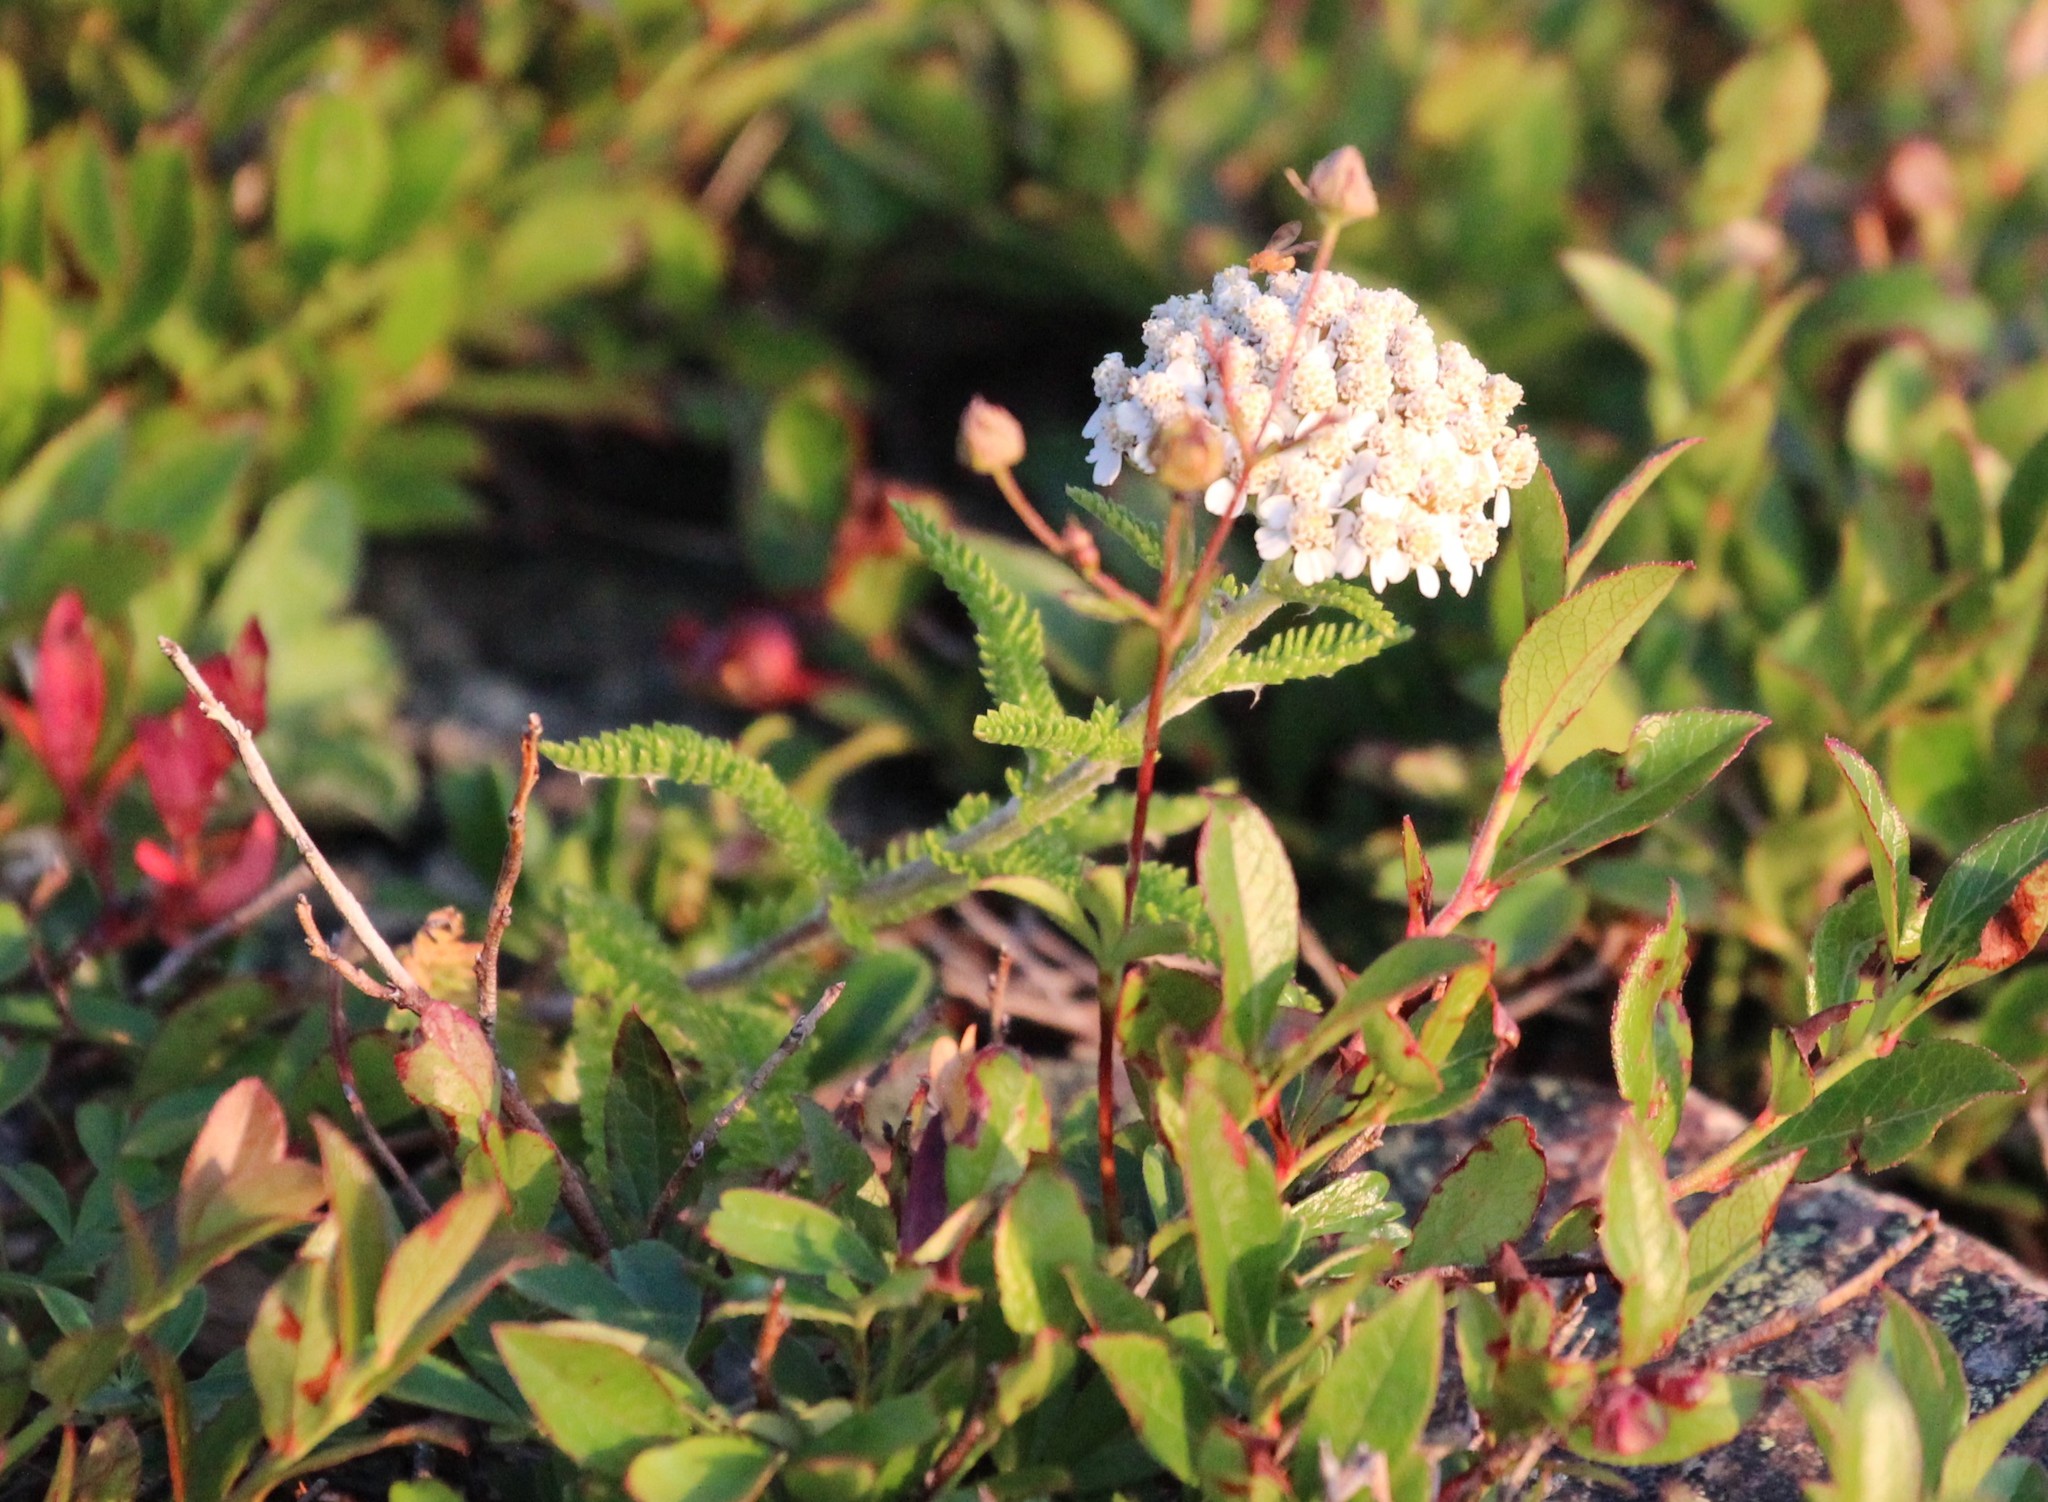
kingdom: Plantae
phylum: Tracheophyta
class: Magnoliopsida
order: Asterales
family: Asteraceae
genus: Achillea
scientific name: Achillea millefolium
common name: Yarrow
